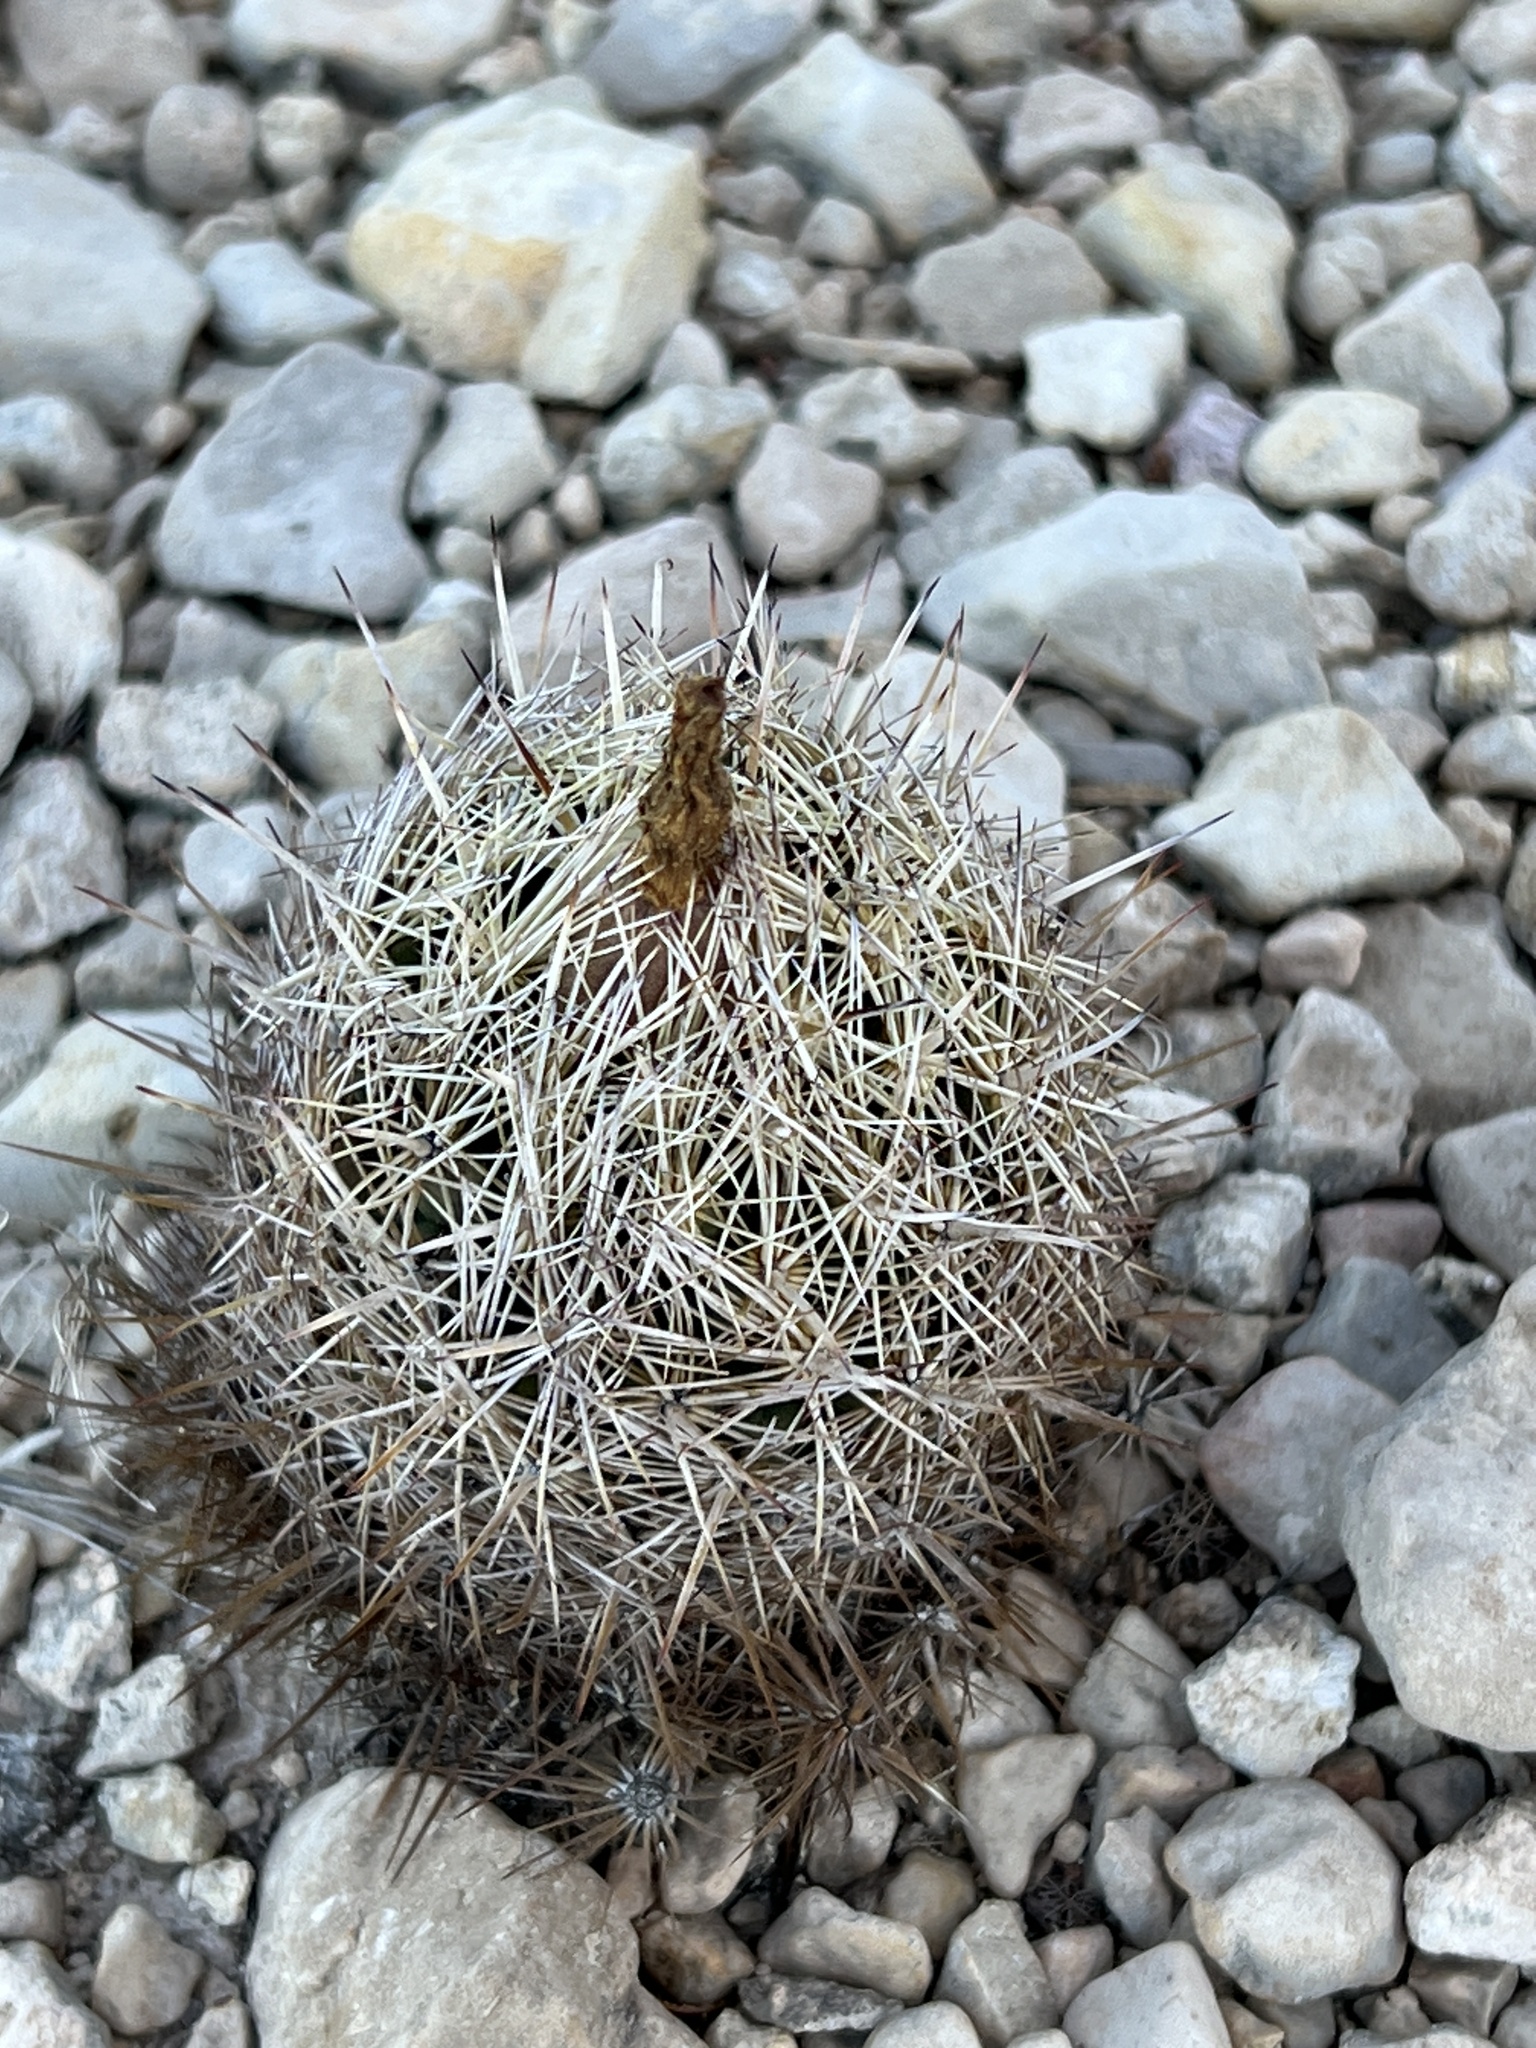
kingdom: Plantae
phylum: Tracheophyta
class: Magnoliopsida
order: Caryophyllales
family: Cactaceae
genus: Coryphantha
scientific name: Coryphantha echinus
